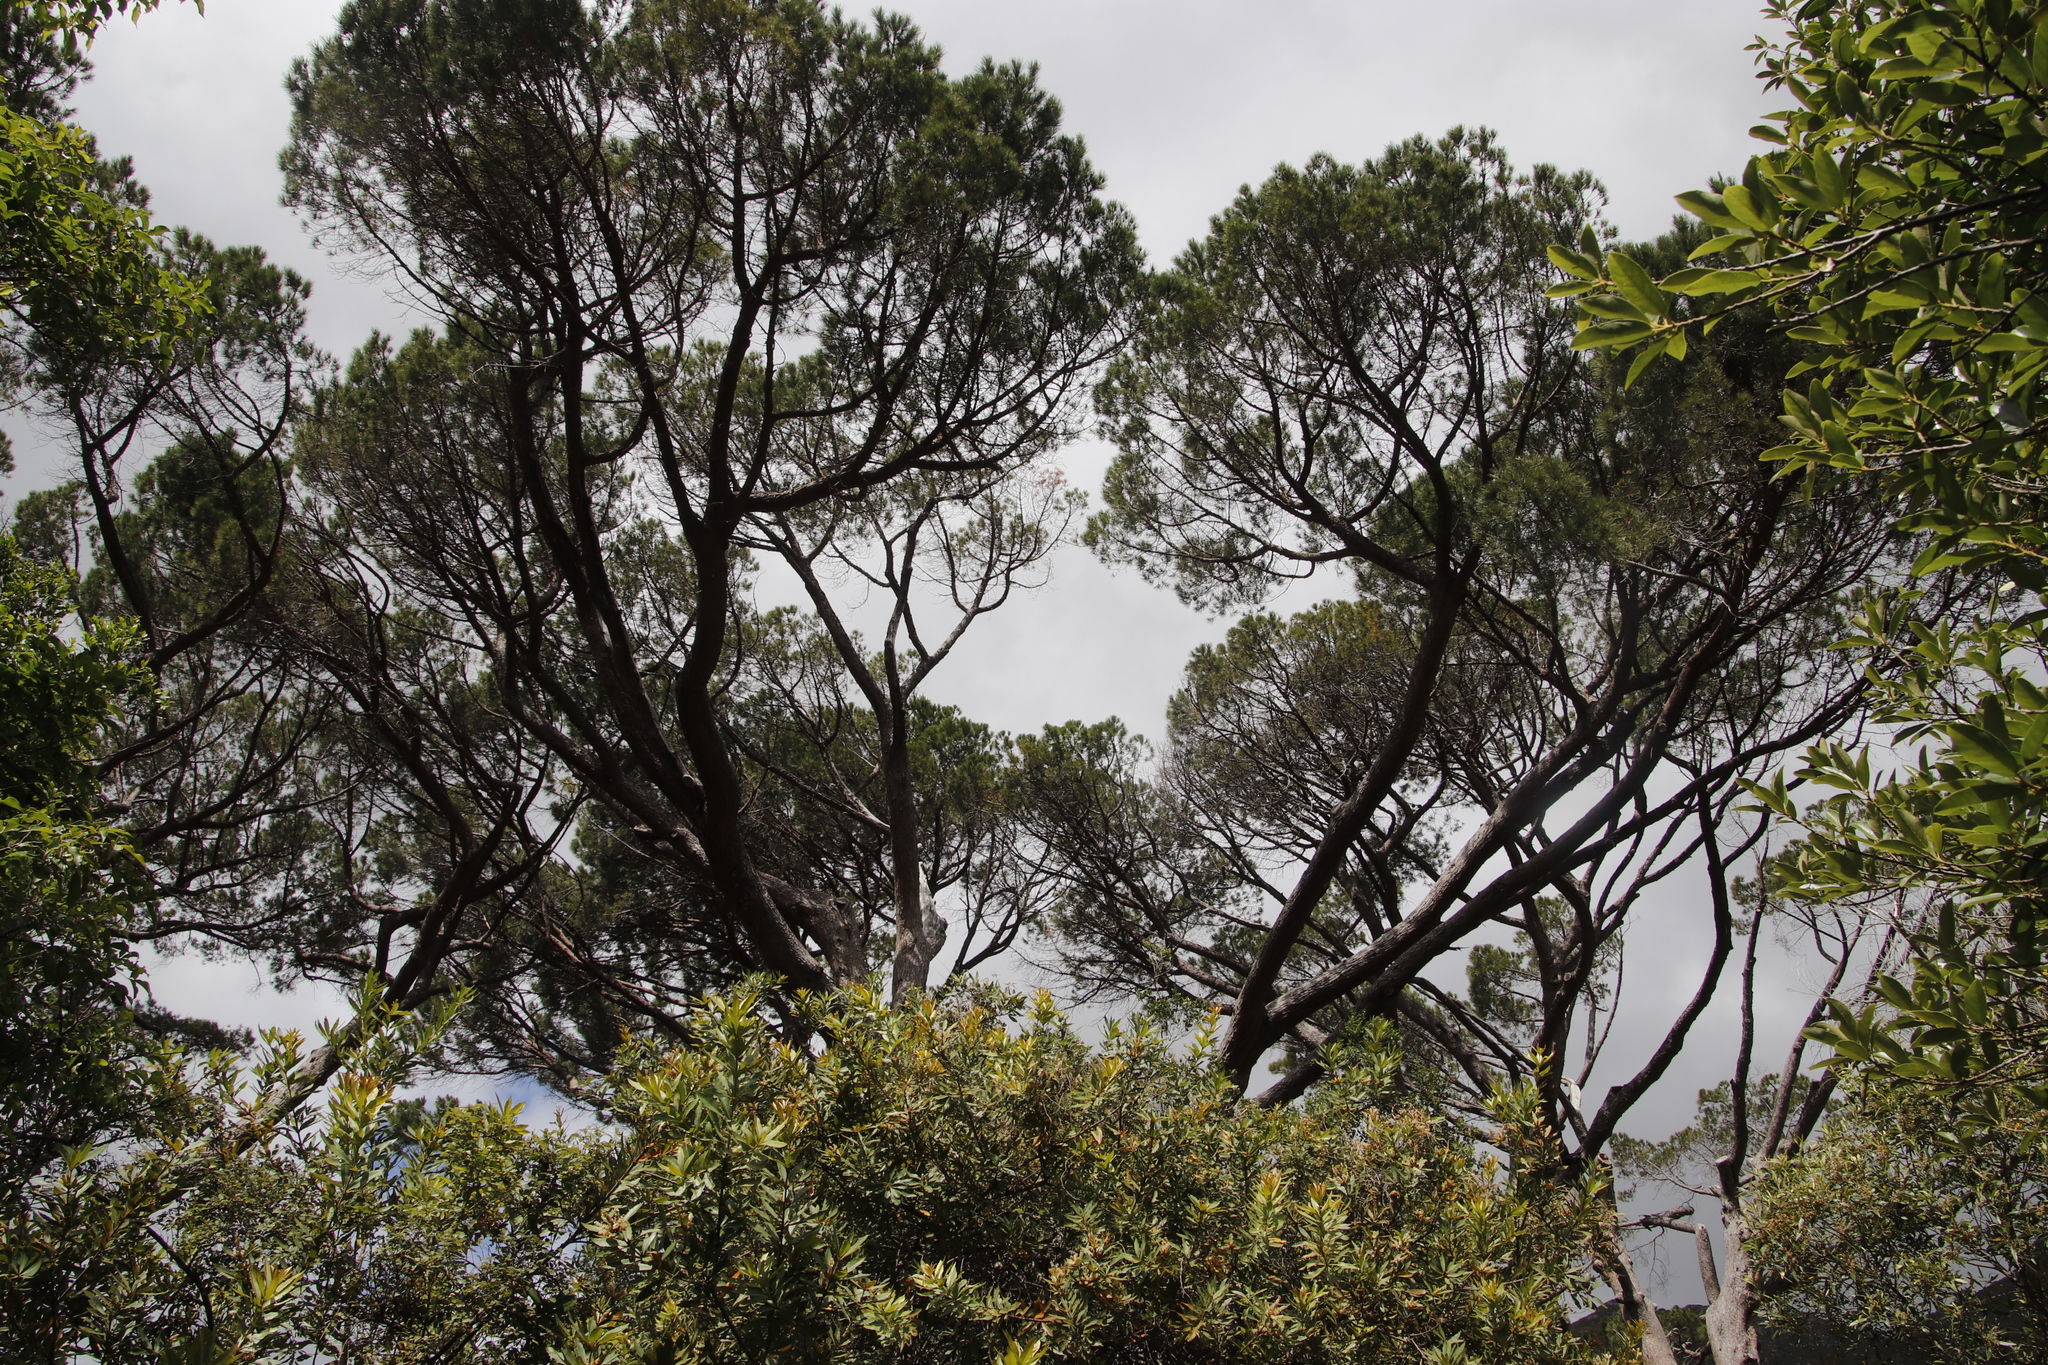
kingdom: Plantae
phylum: Tracheophyta
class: Pinopsida
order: Pinales
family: Pinaceae
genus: Pinus
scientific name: Pinus pinea
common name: Italian stone pine
